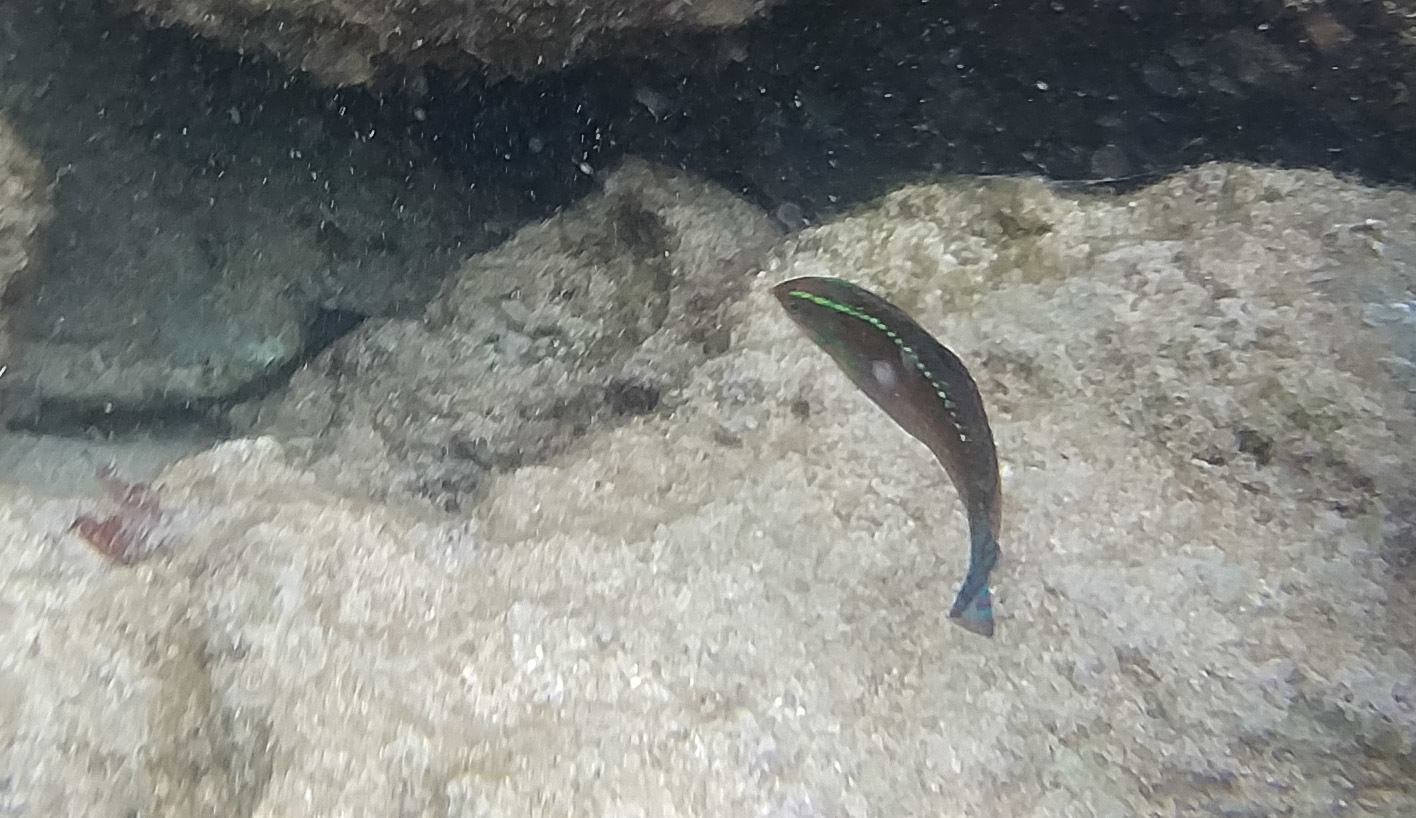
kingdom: Animalia
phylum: Chordata
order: Perciformes
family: Labridae
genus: Halichoeres
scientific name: Halichoeres ornatissimus
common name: Ornamented wrasse
